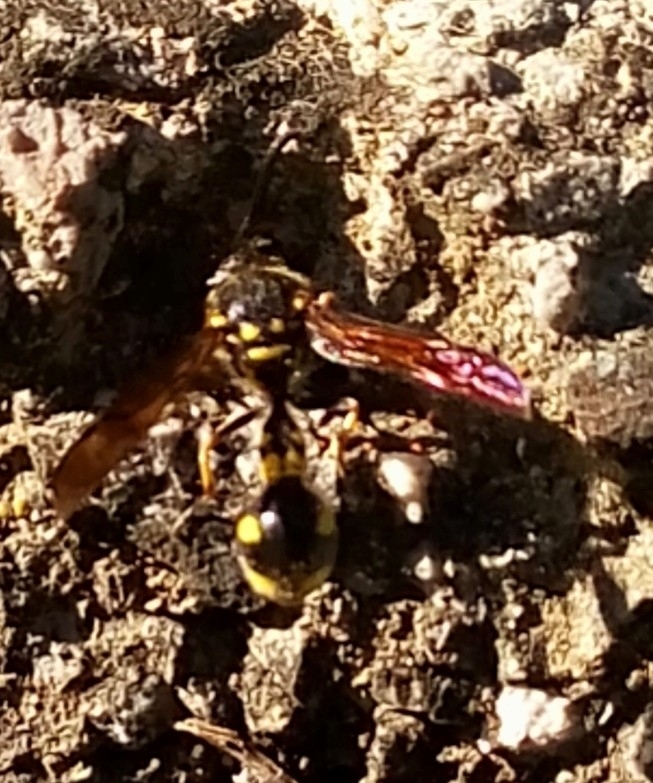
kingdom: Animalia
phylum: Arthropoda
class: Insecta
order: Hymenoptera
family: Vespidae
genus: Eumenes
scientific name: Eumenes
